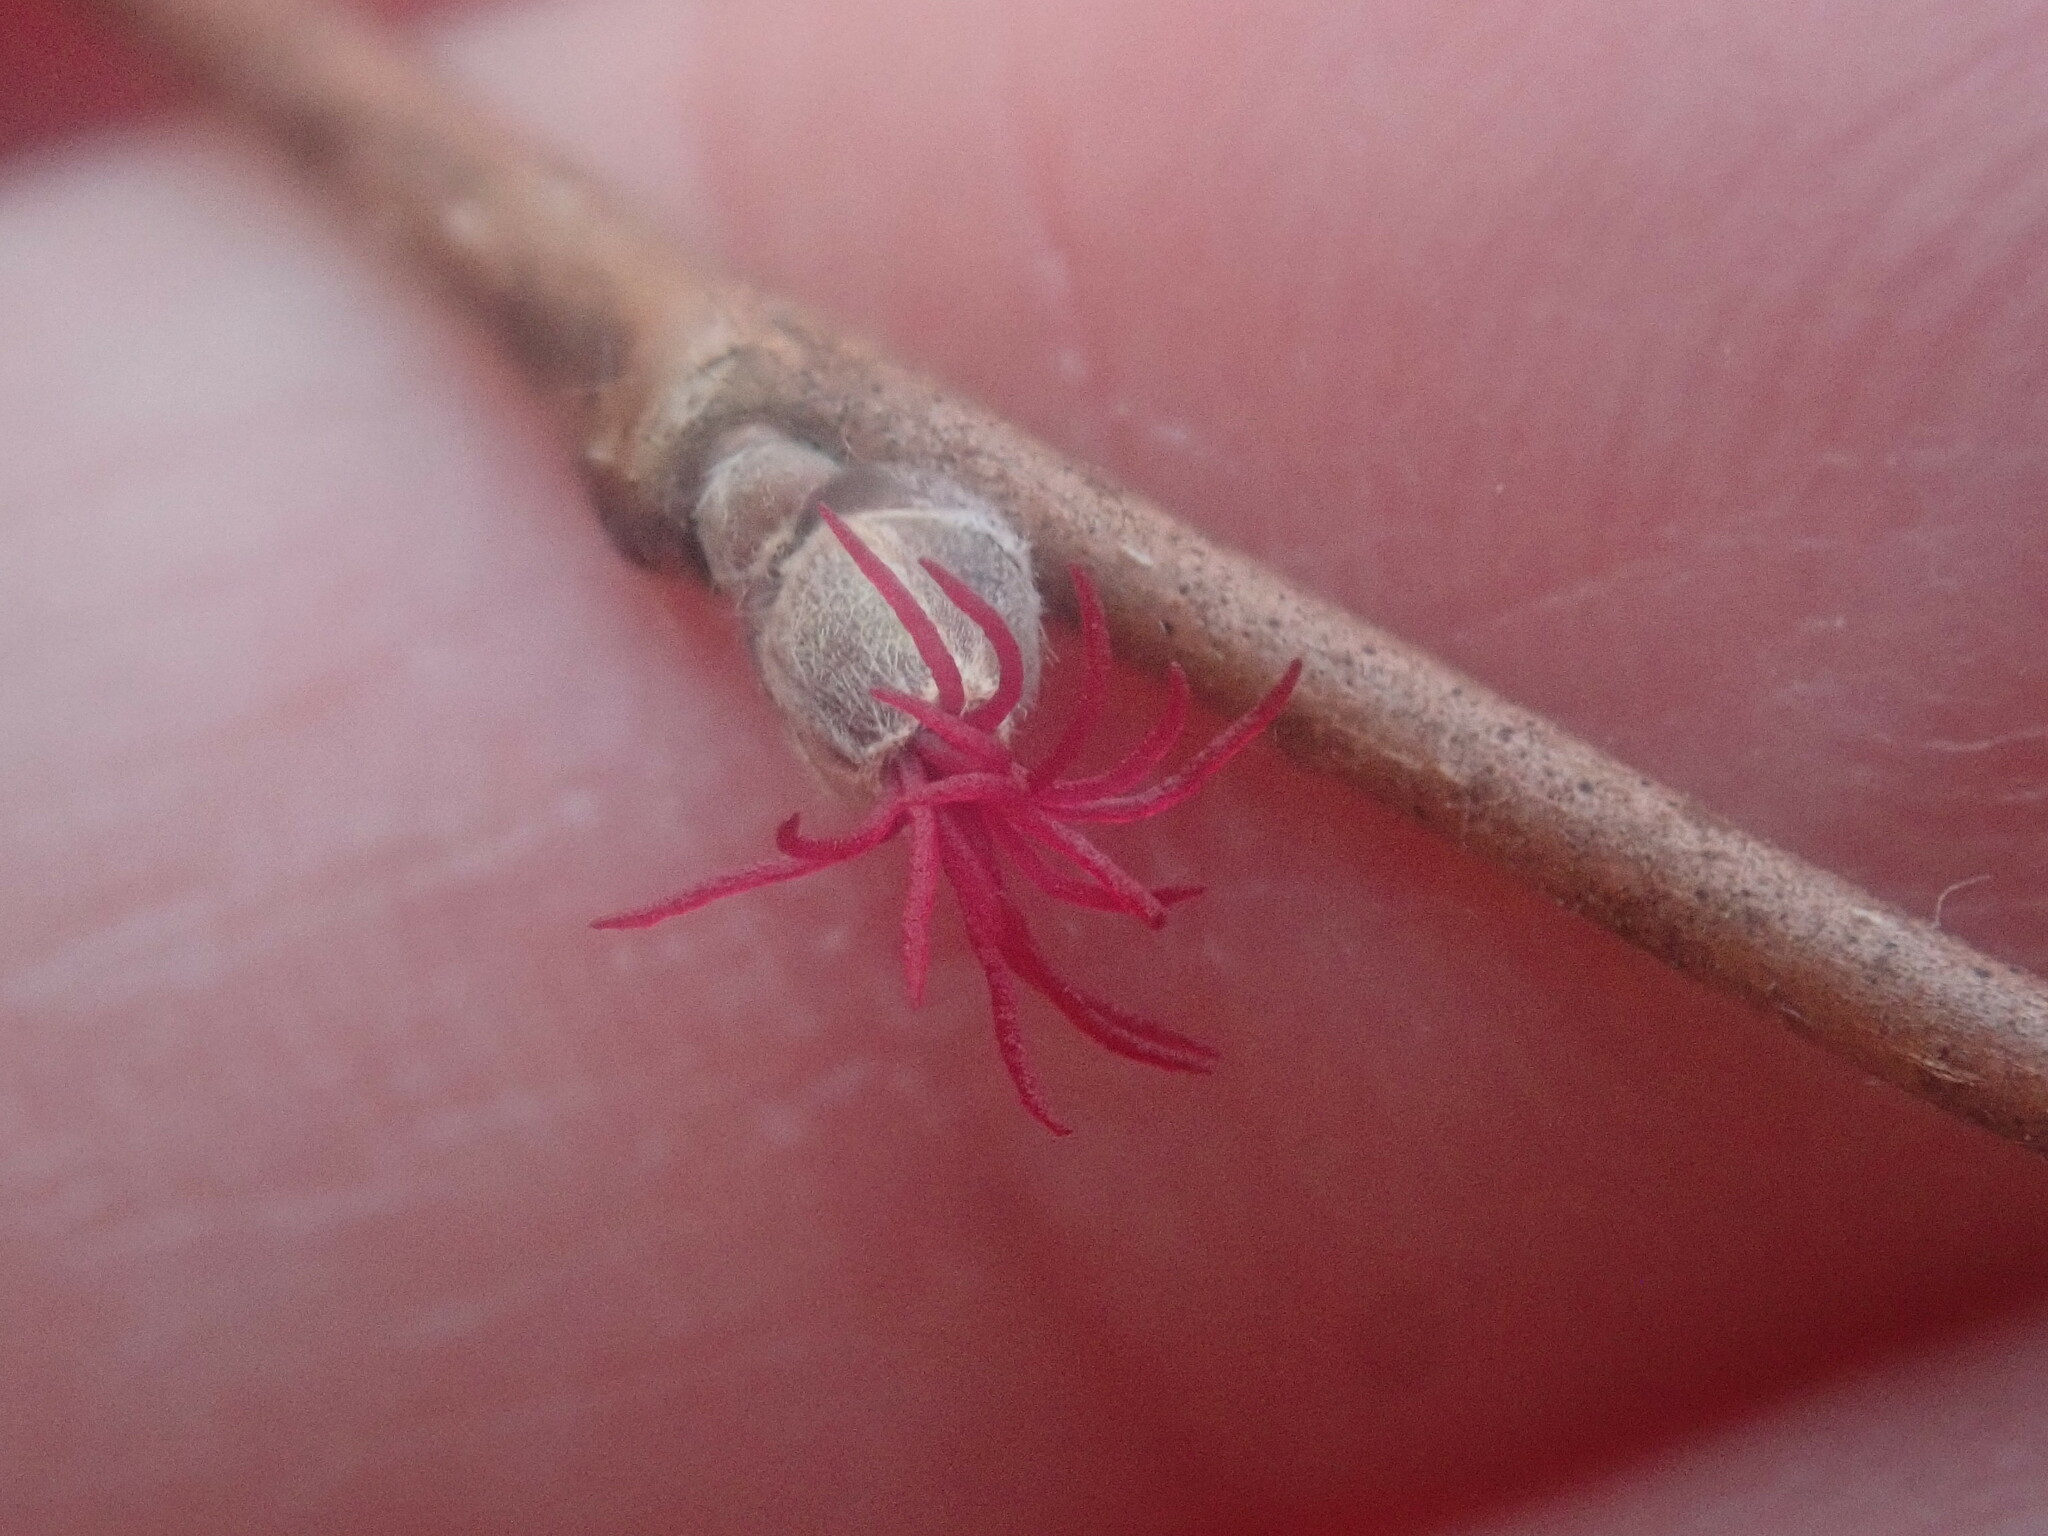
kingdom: Plantae
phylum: Tracheophyta
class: Magnoliopsida
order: Fagales
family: Betulaceae
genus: Corylus
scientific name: Corylus cornuta
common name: Beaked hazel
